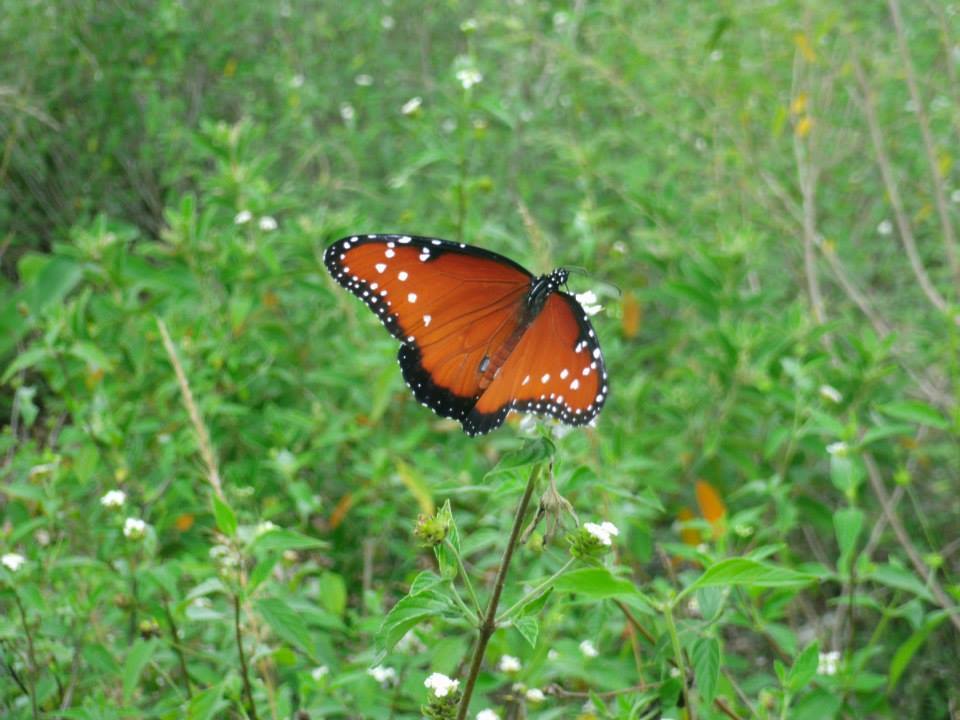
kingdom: Animalia
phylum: Arthropoda
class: Insecta
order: Lepidoptera
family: Nymphalidae
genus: Danaus
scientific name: Danaus gilippus
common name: Queen
